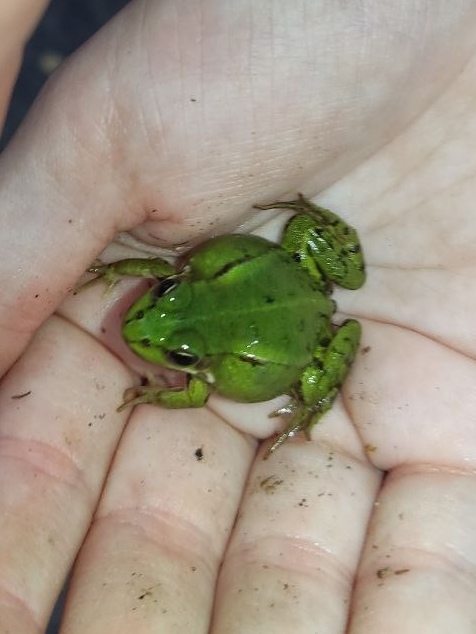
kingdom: Animalia
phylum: Chordata
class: Amphibia
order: Anura
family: Ranidae
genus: Pelophylax
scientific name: Pelophylax lessonae
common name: Pool frog
